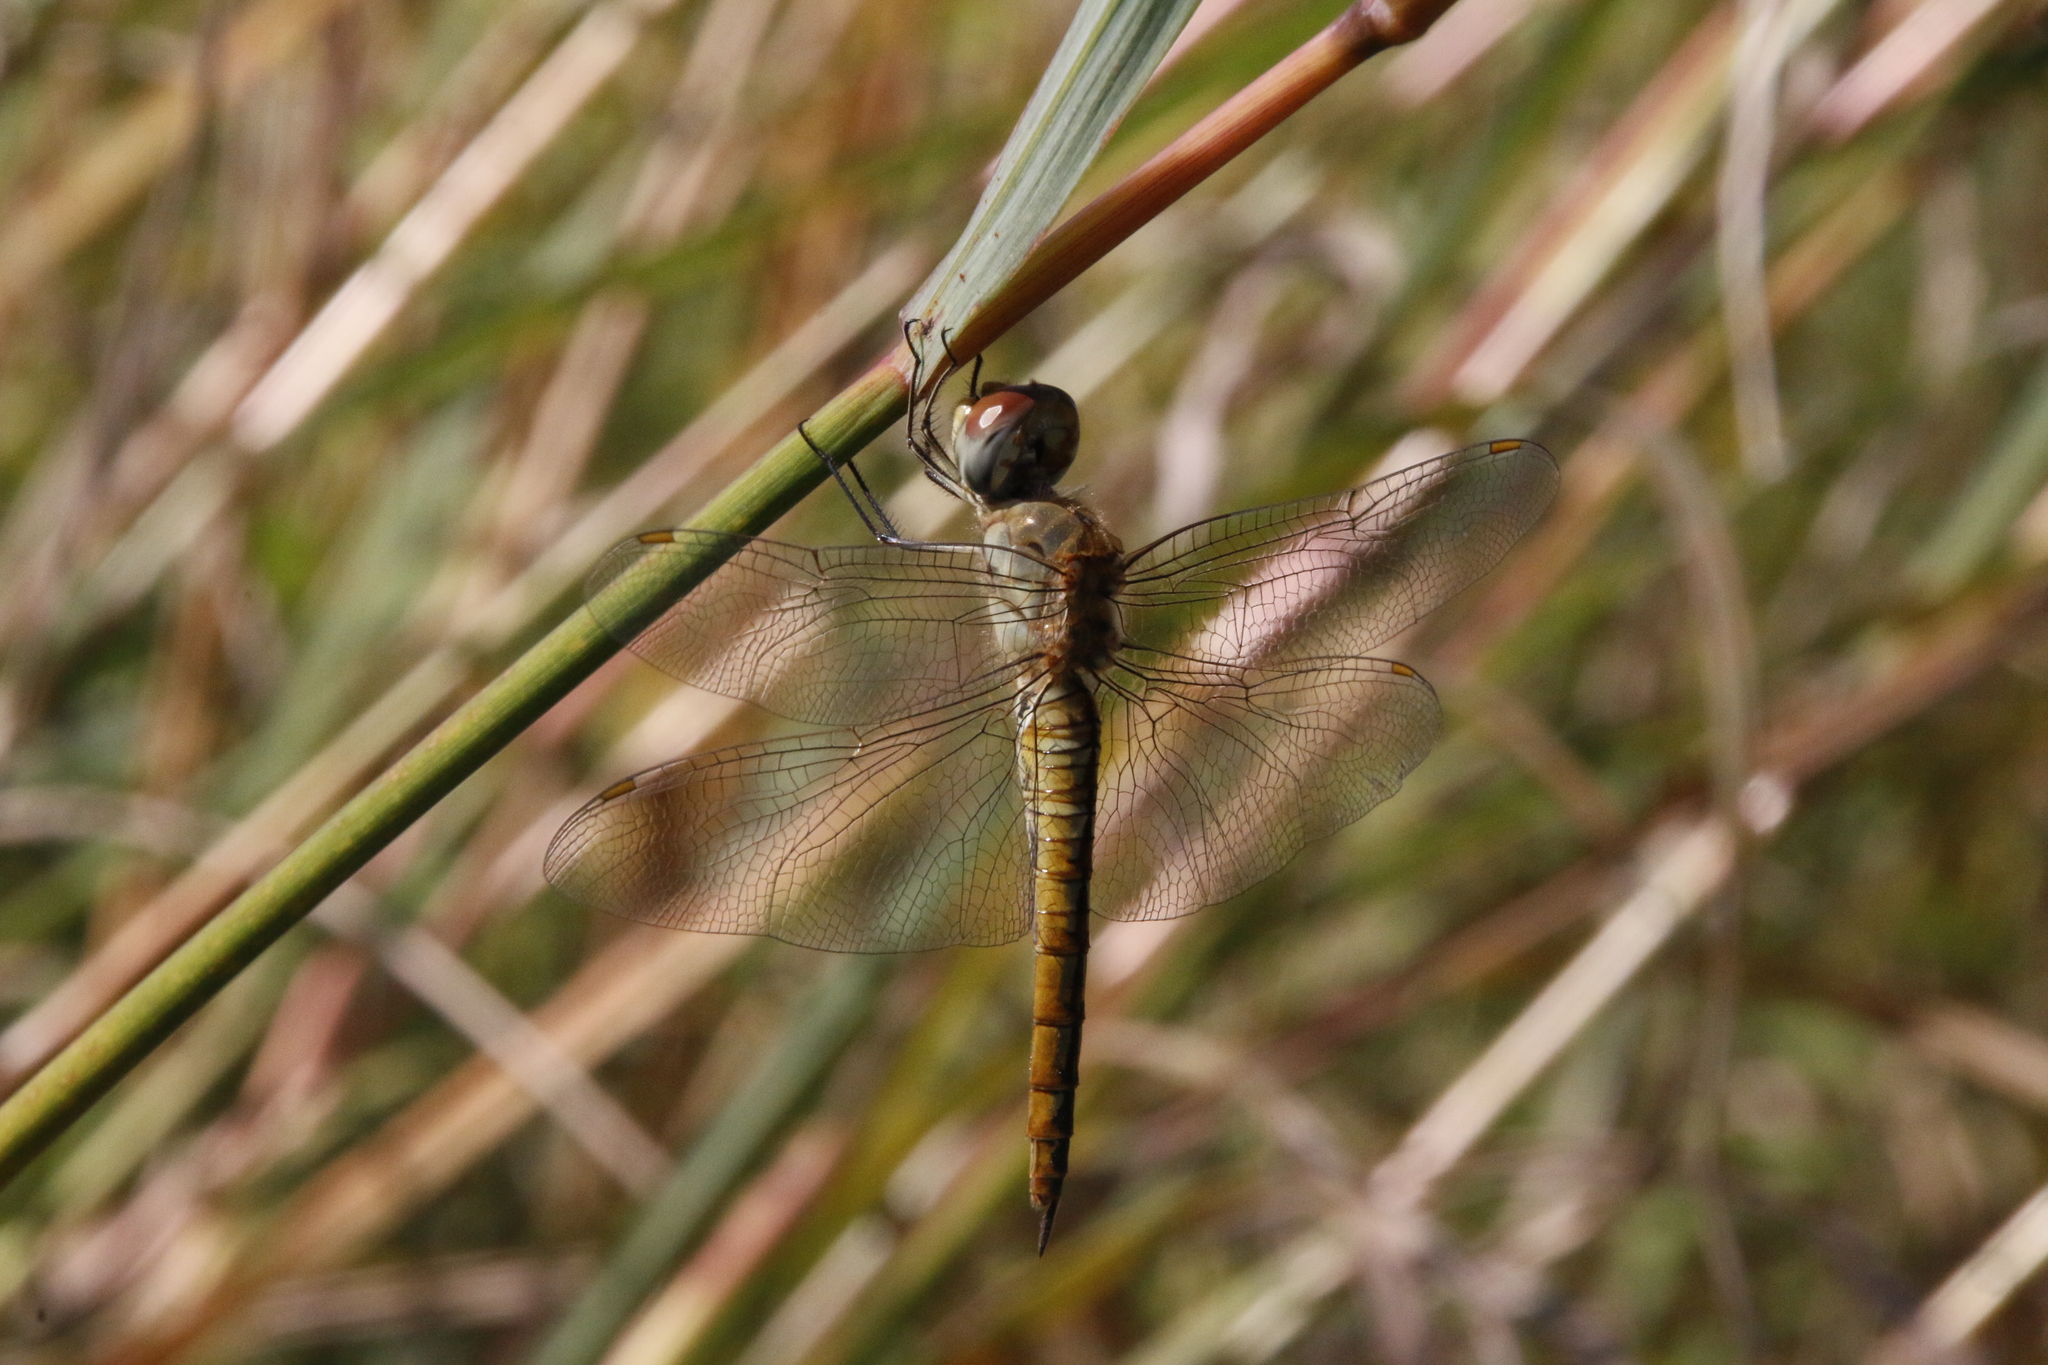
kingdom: Animalia
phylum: Arthropoda
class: Insecta
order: Odonata
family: Libellulidae
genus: Pantala
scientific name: Pantala flavescens
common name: Wandering glider
